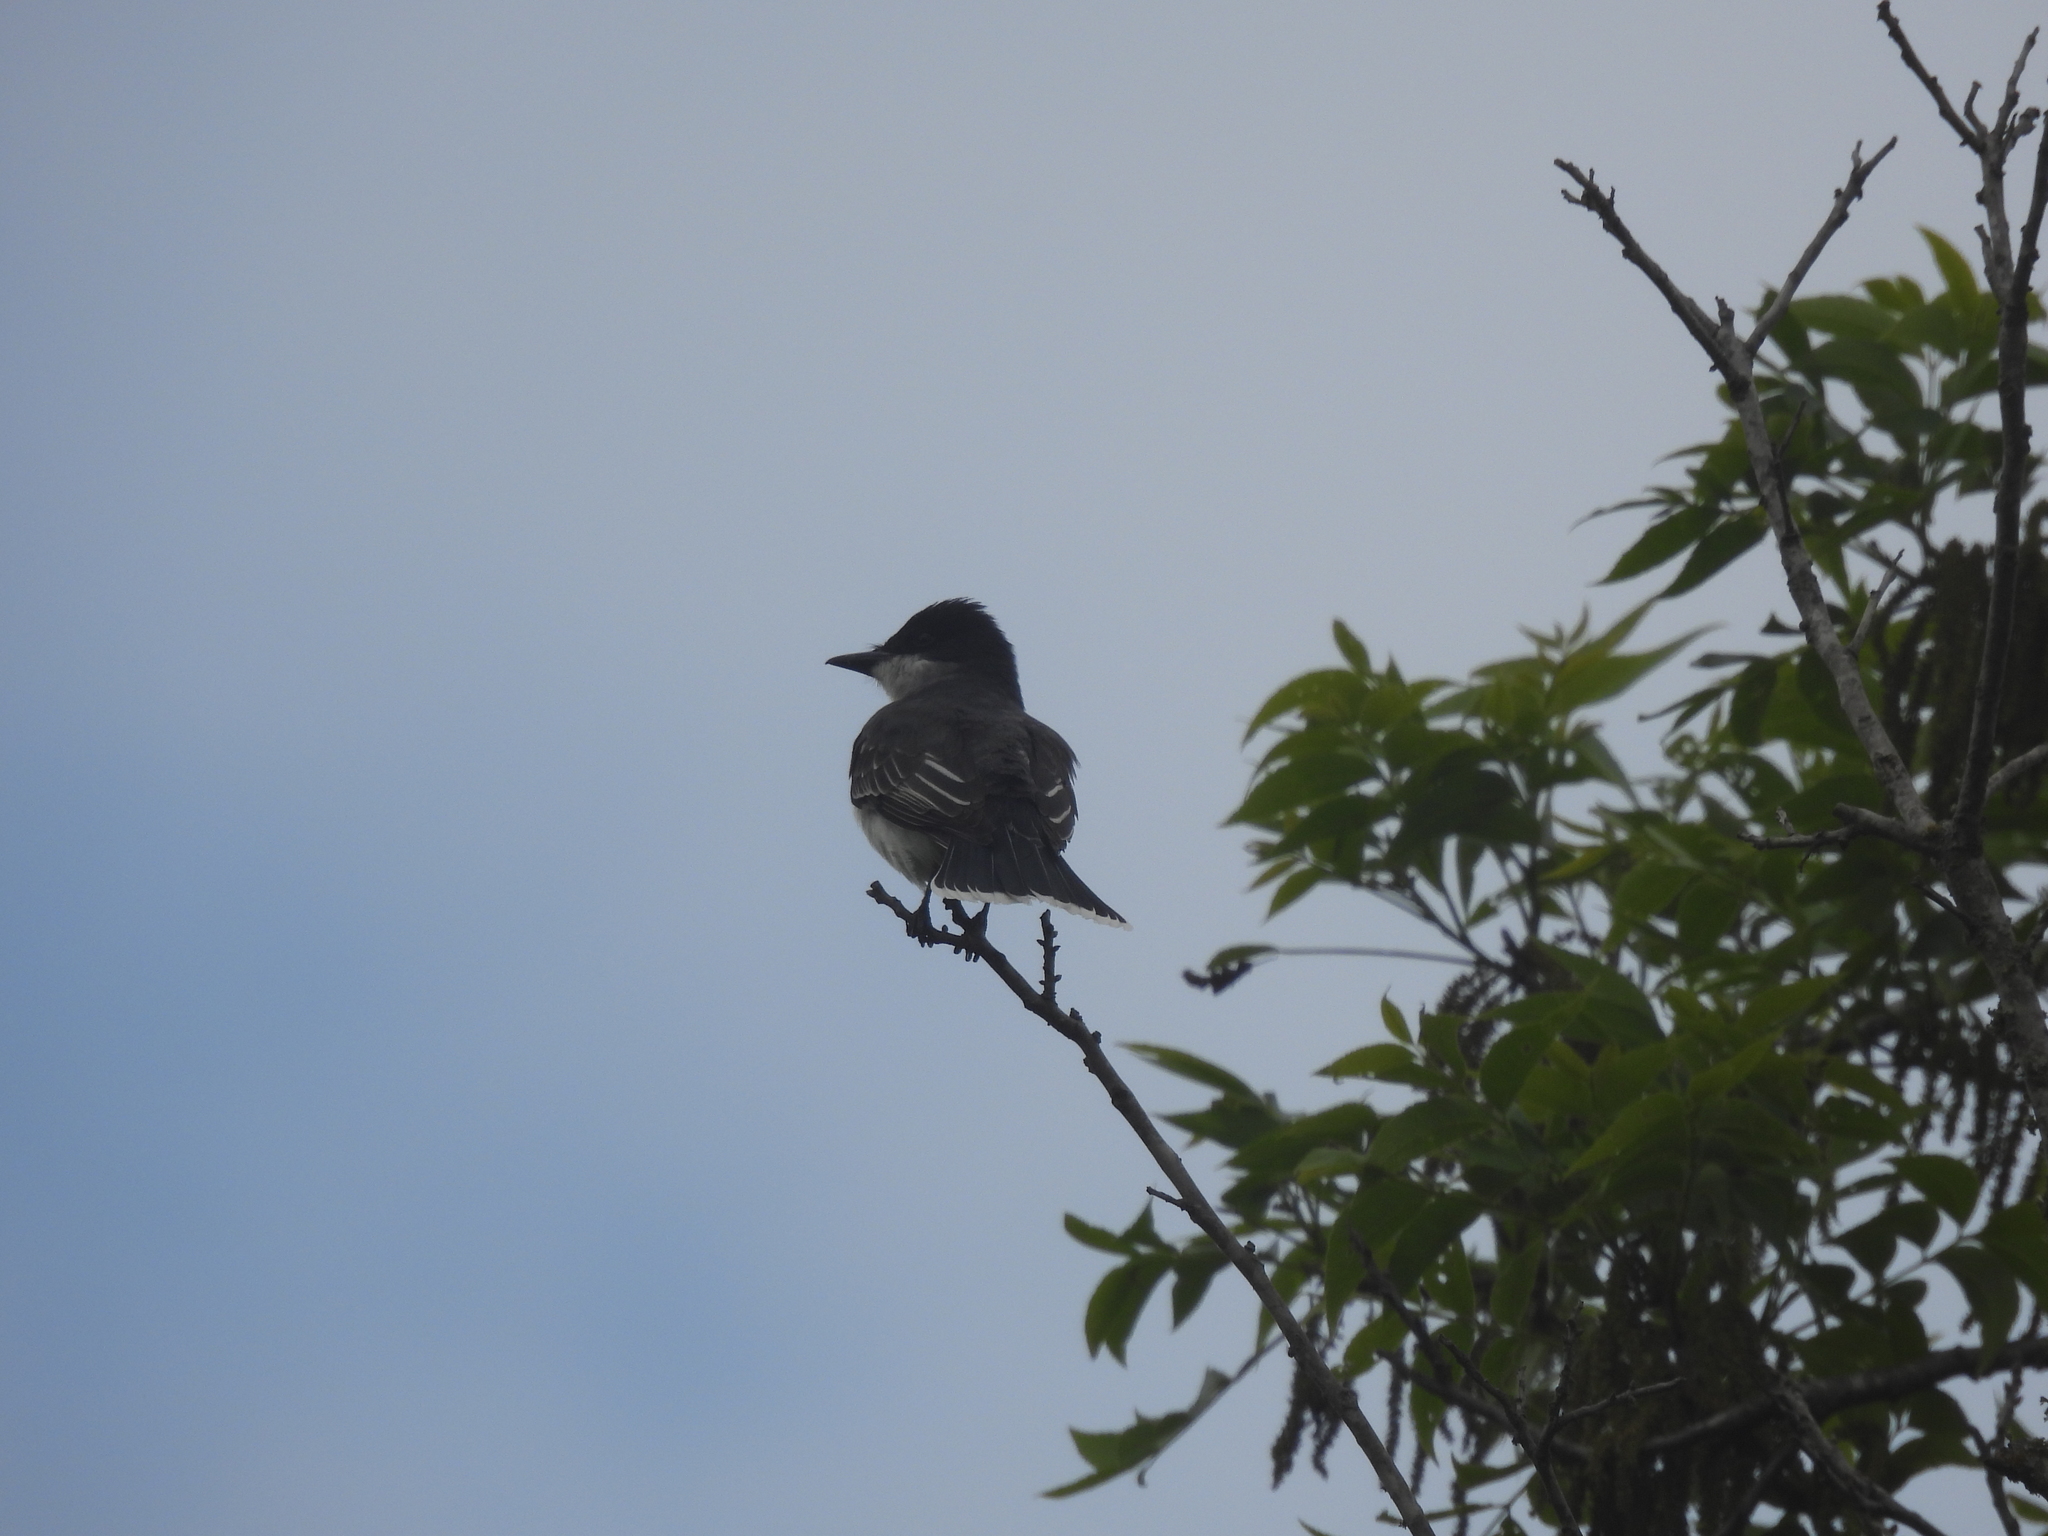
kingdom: Animalia
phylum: Chordata
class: Aves
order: Passeriformes
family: Tyrannidae
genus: Tyrannus
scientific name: Tyrannus tyrannus
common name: Eastern kingbird
